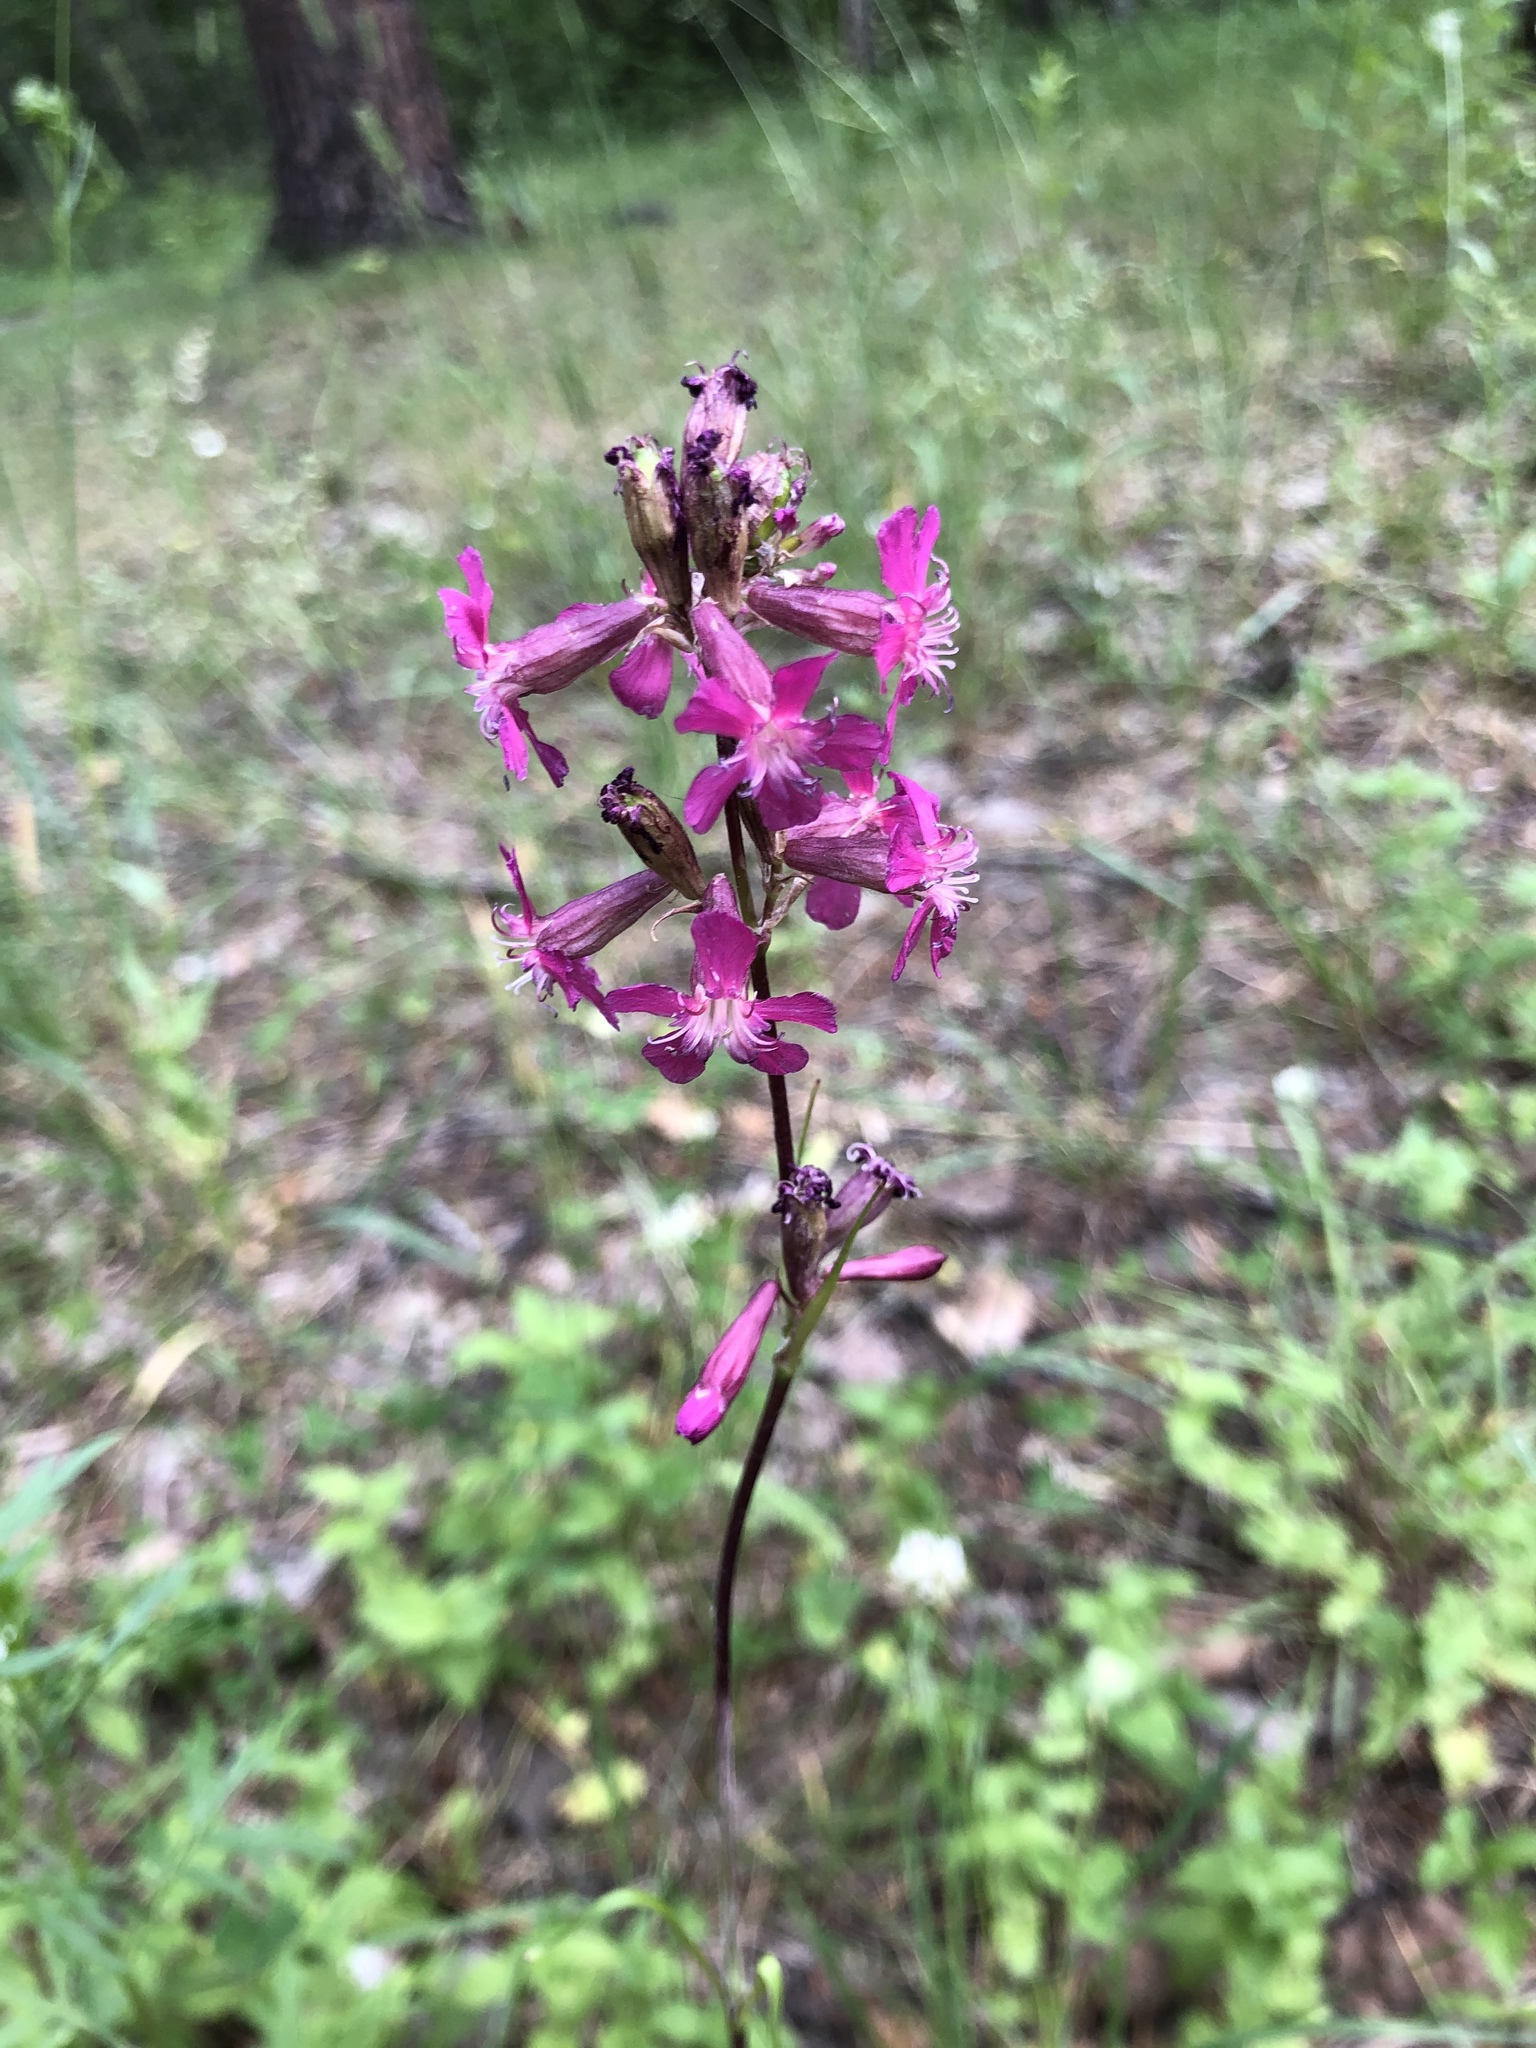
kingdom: Plantae
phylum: Tracheophyta
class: Magnoliopsida
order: Caryophyllales
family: Caryophyllaceae
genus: Viscaria
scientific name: Viscaria vulgaris
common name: Clammy campion
